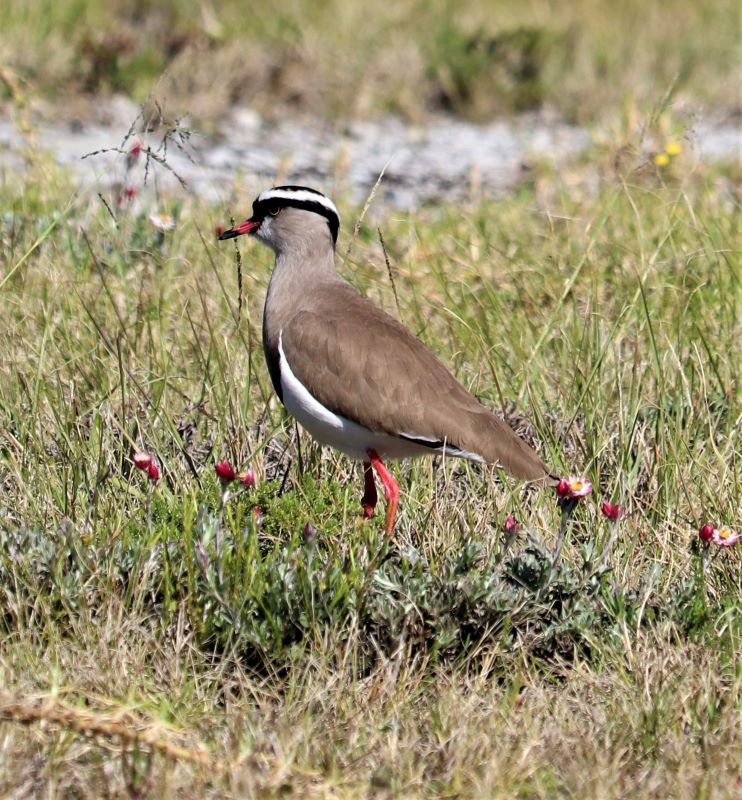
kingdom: Animalia
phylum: Chordata
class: Aves
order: Charadriiformes
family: Charadriidae
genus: Vanellus
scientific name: Vanellus coronatus
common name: Crowned lapwing
